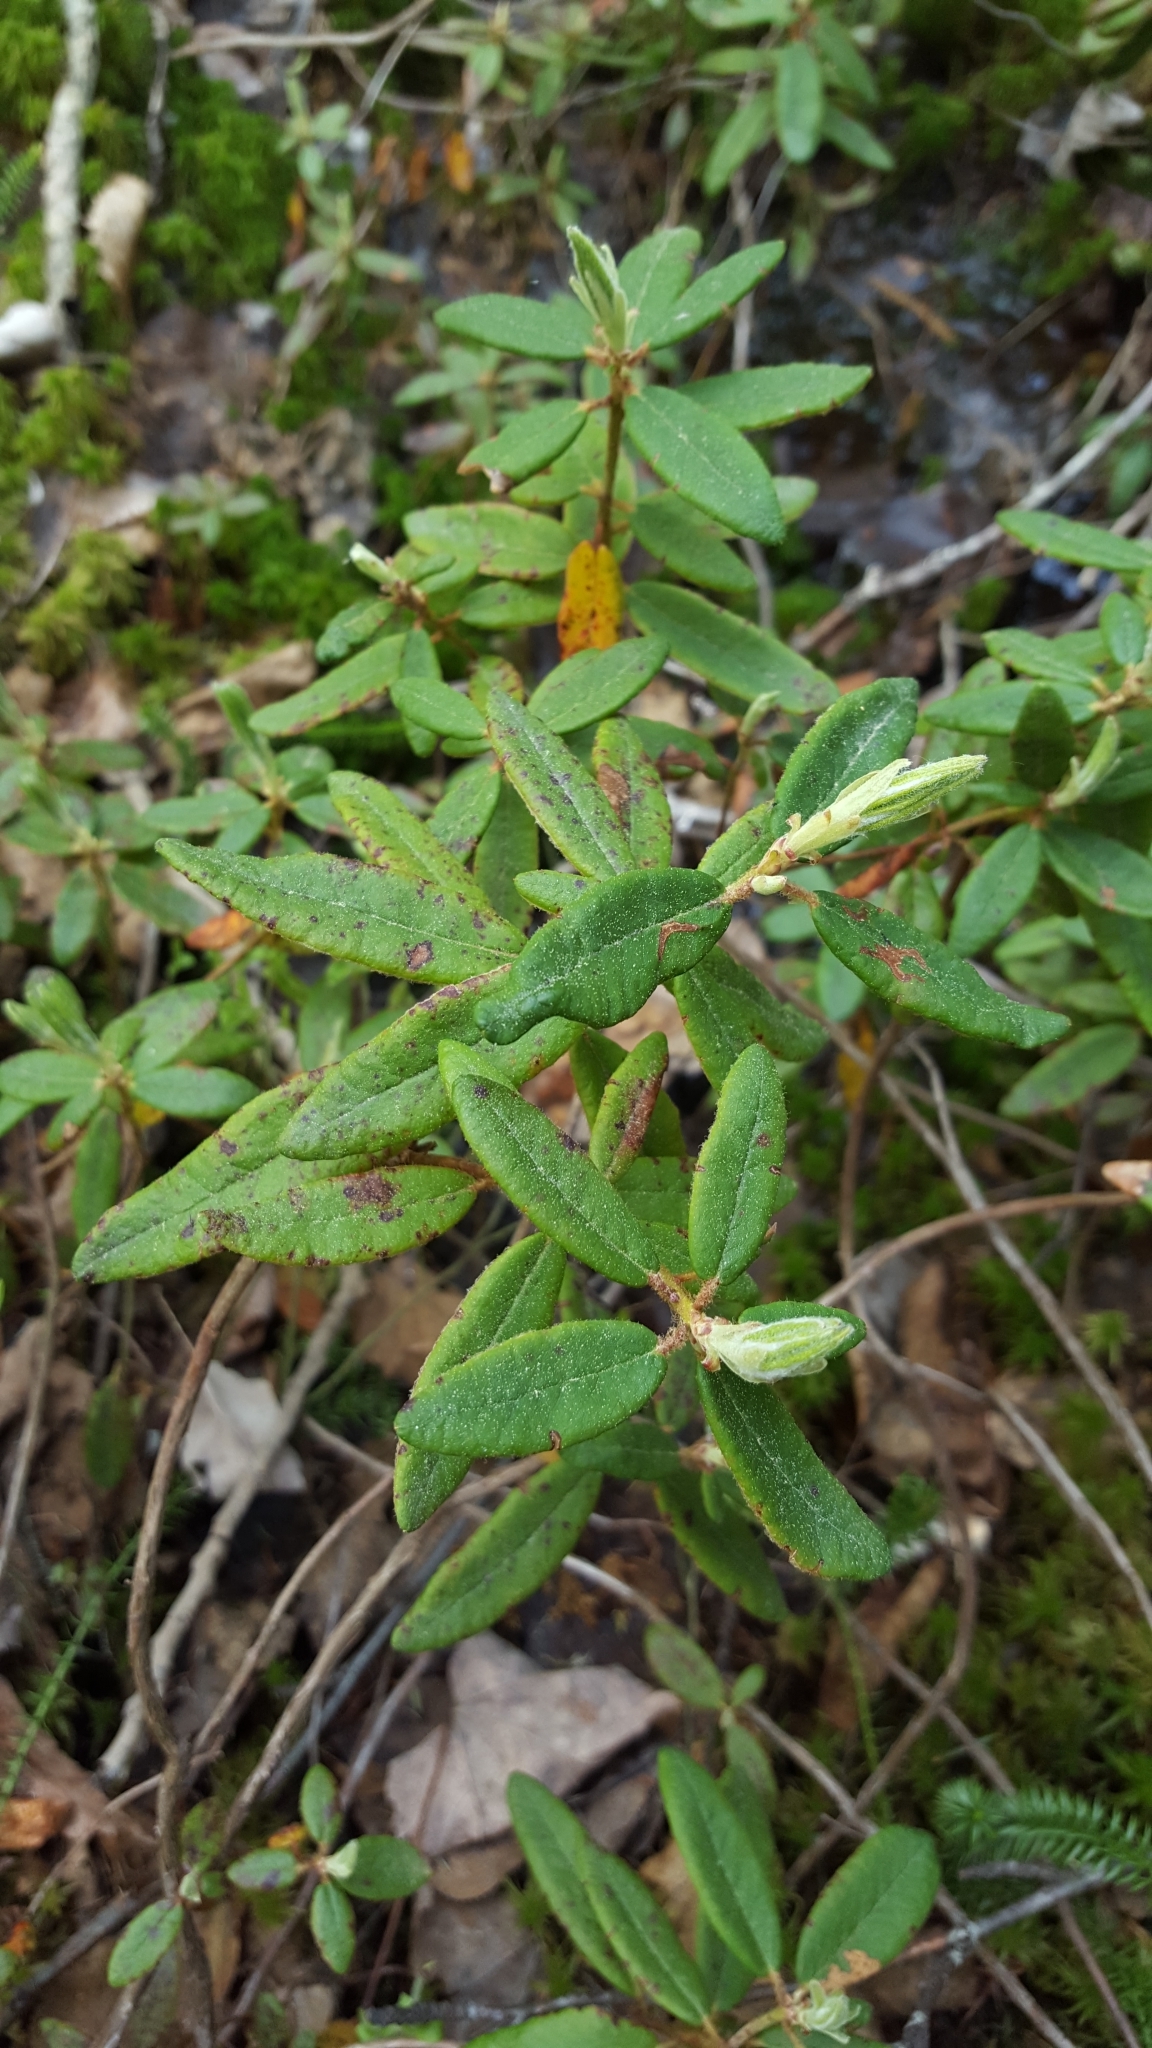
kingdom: Plantae
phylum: Tracheophyta
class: Magnoliopsida
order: Ericales
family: Ericaceae
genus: Rhododendron
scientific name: Rhododendron groenlandicum
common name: Bog labrador tea
